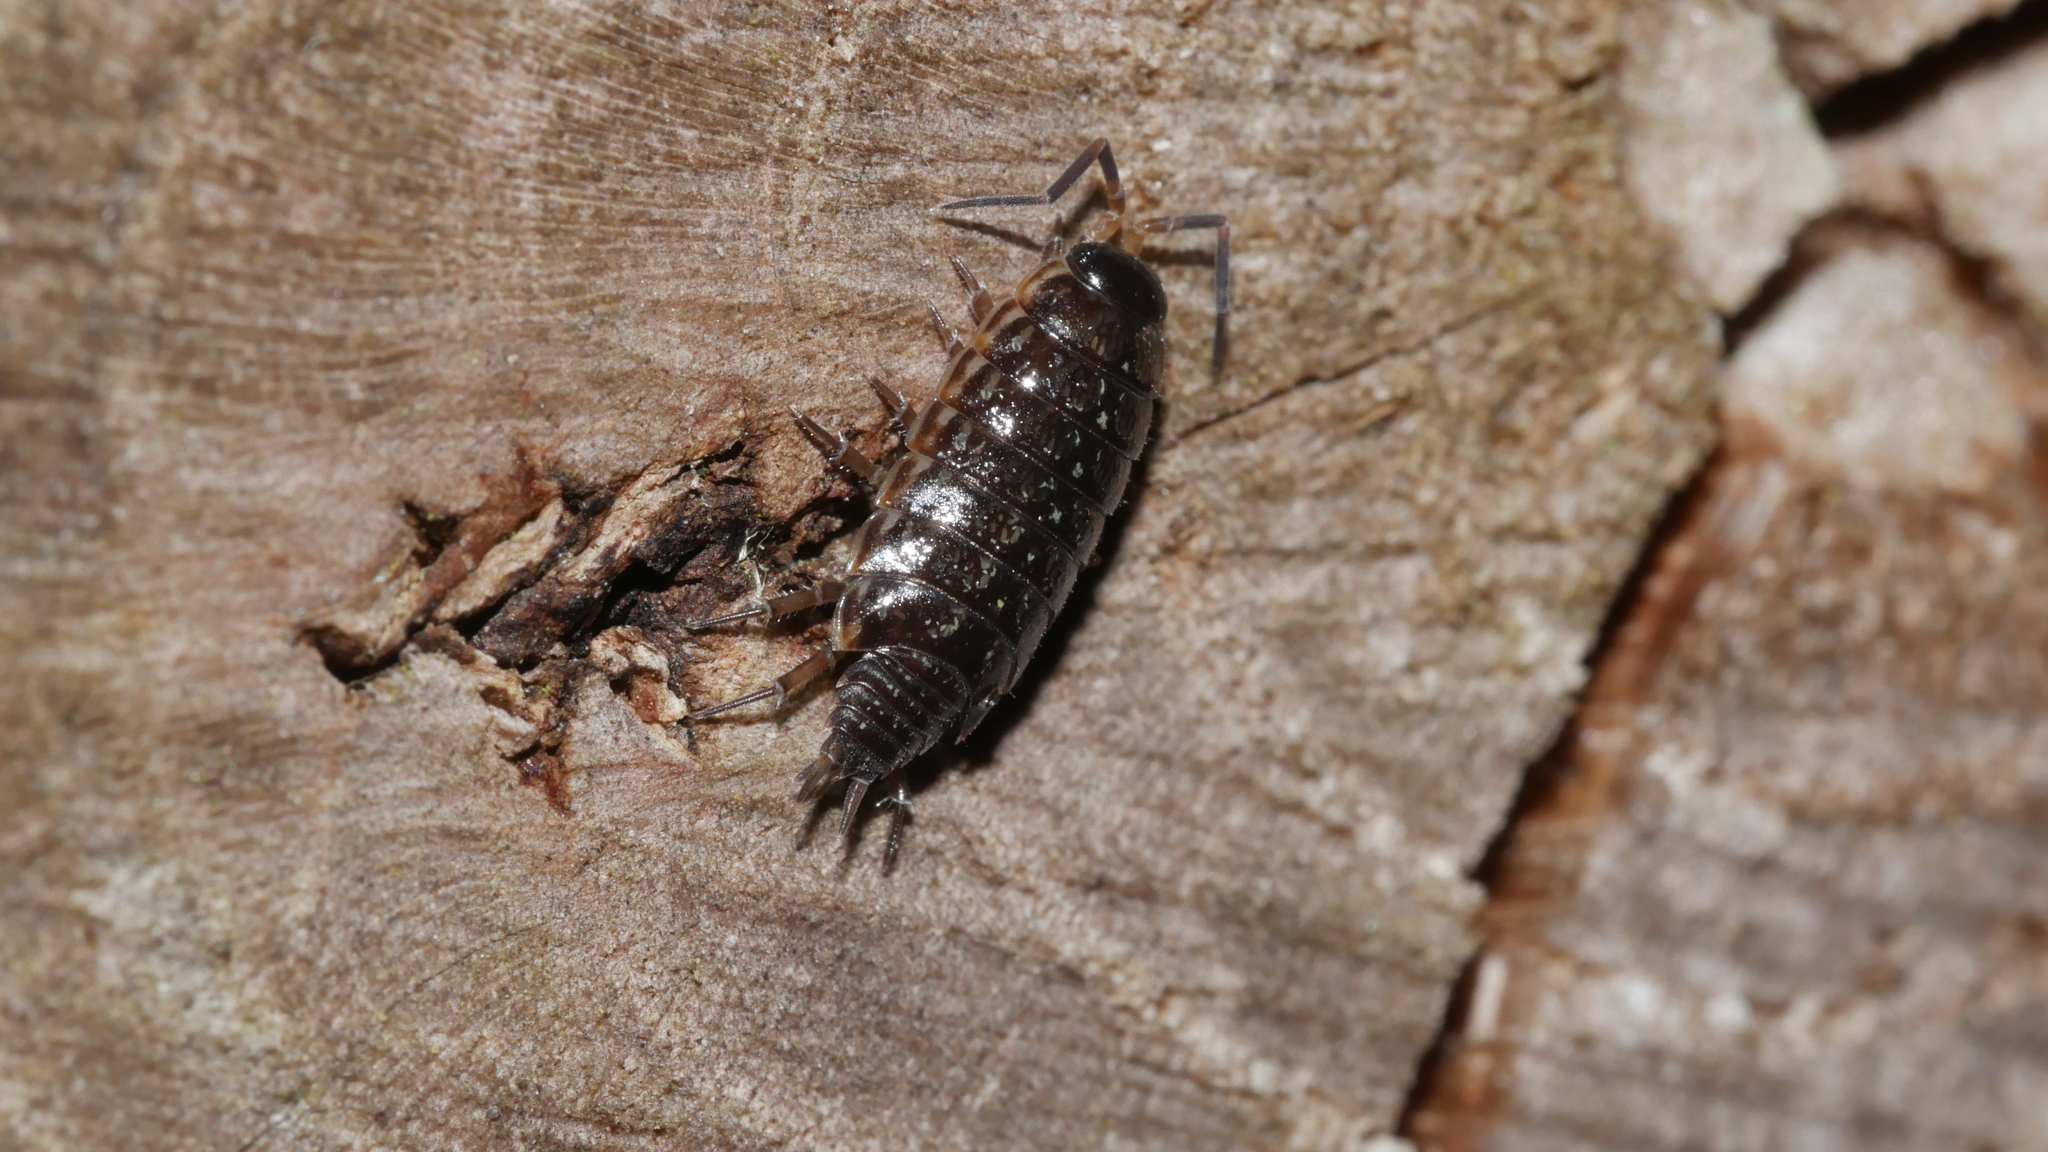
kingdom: Animalia
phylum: Arthropoda
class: Malacostraca
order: Isopoda
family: Philosciidae
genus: Philoscia
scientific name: Philoscia muscorum
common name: Common striped woodlouse
